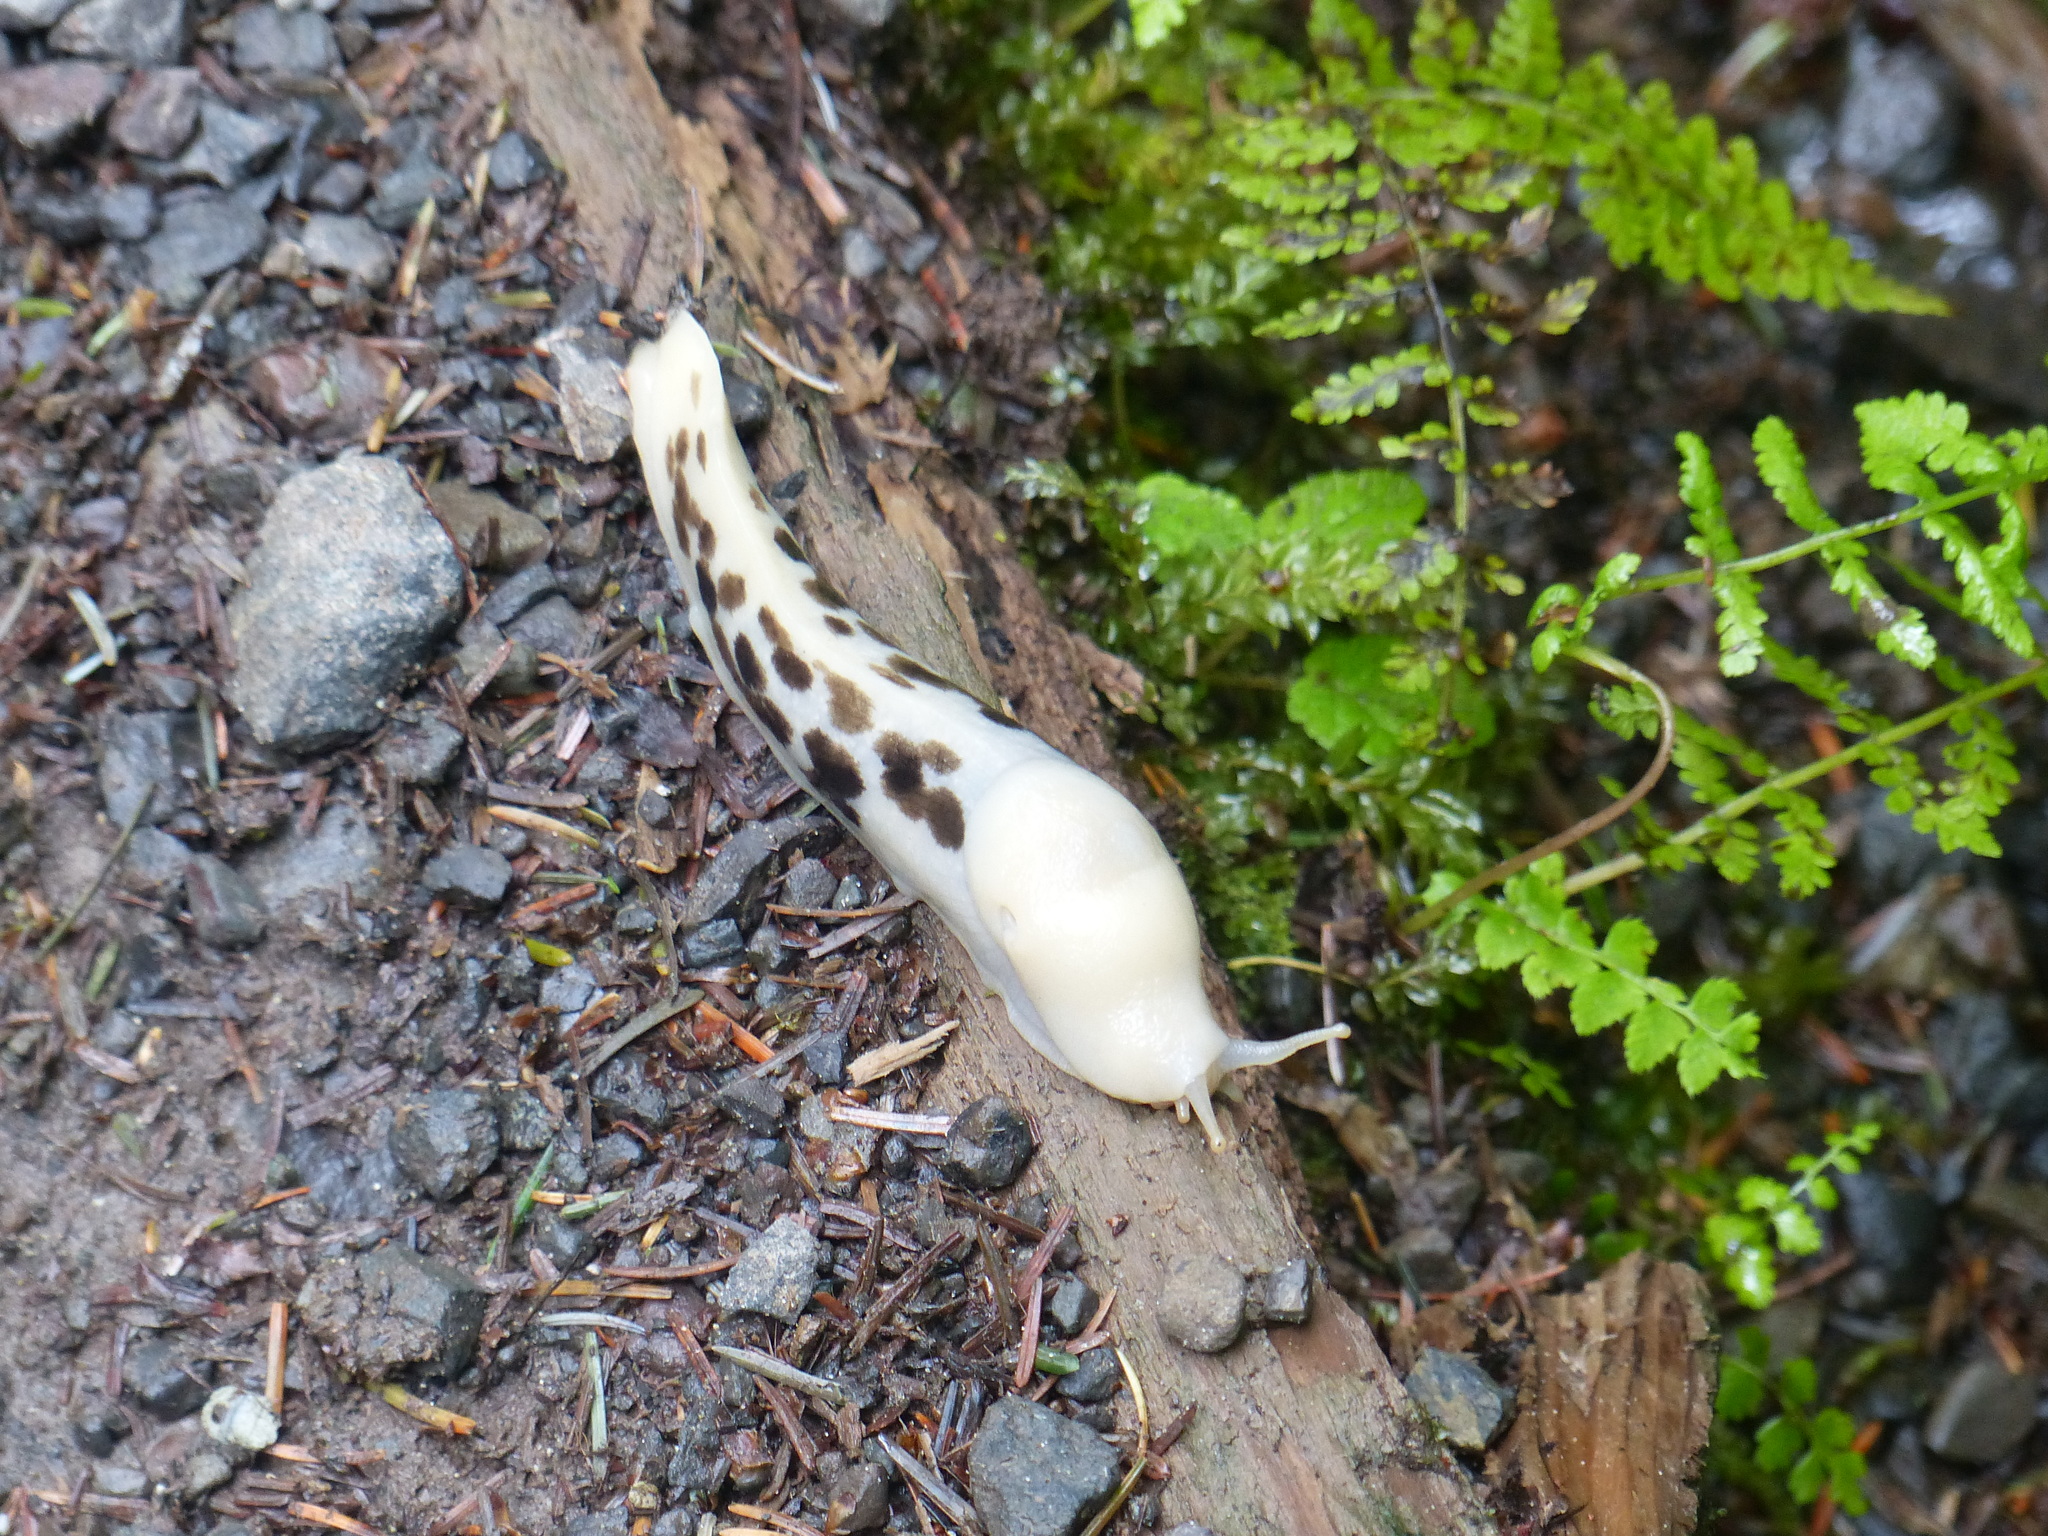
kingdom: Animalia
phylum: Mollusca
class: Gastropoda
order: Stylommatophora
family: Ariolimacidae
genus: Ariolimax
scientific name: Ariolimax columbianus
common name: Pacific banana slug
